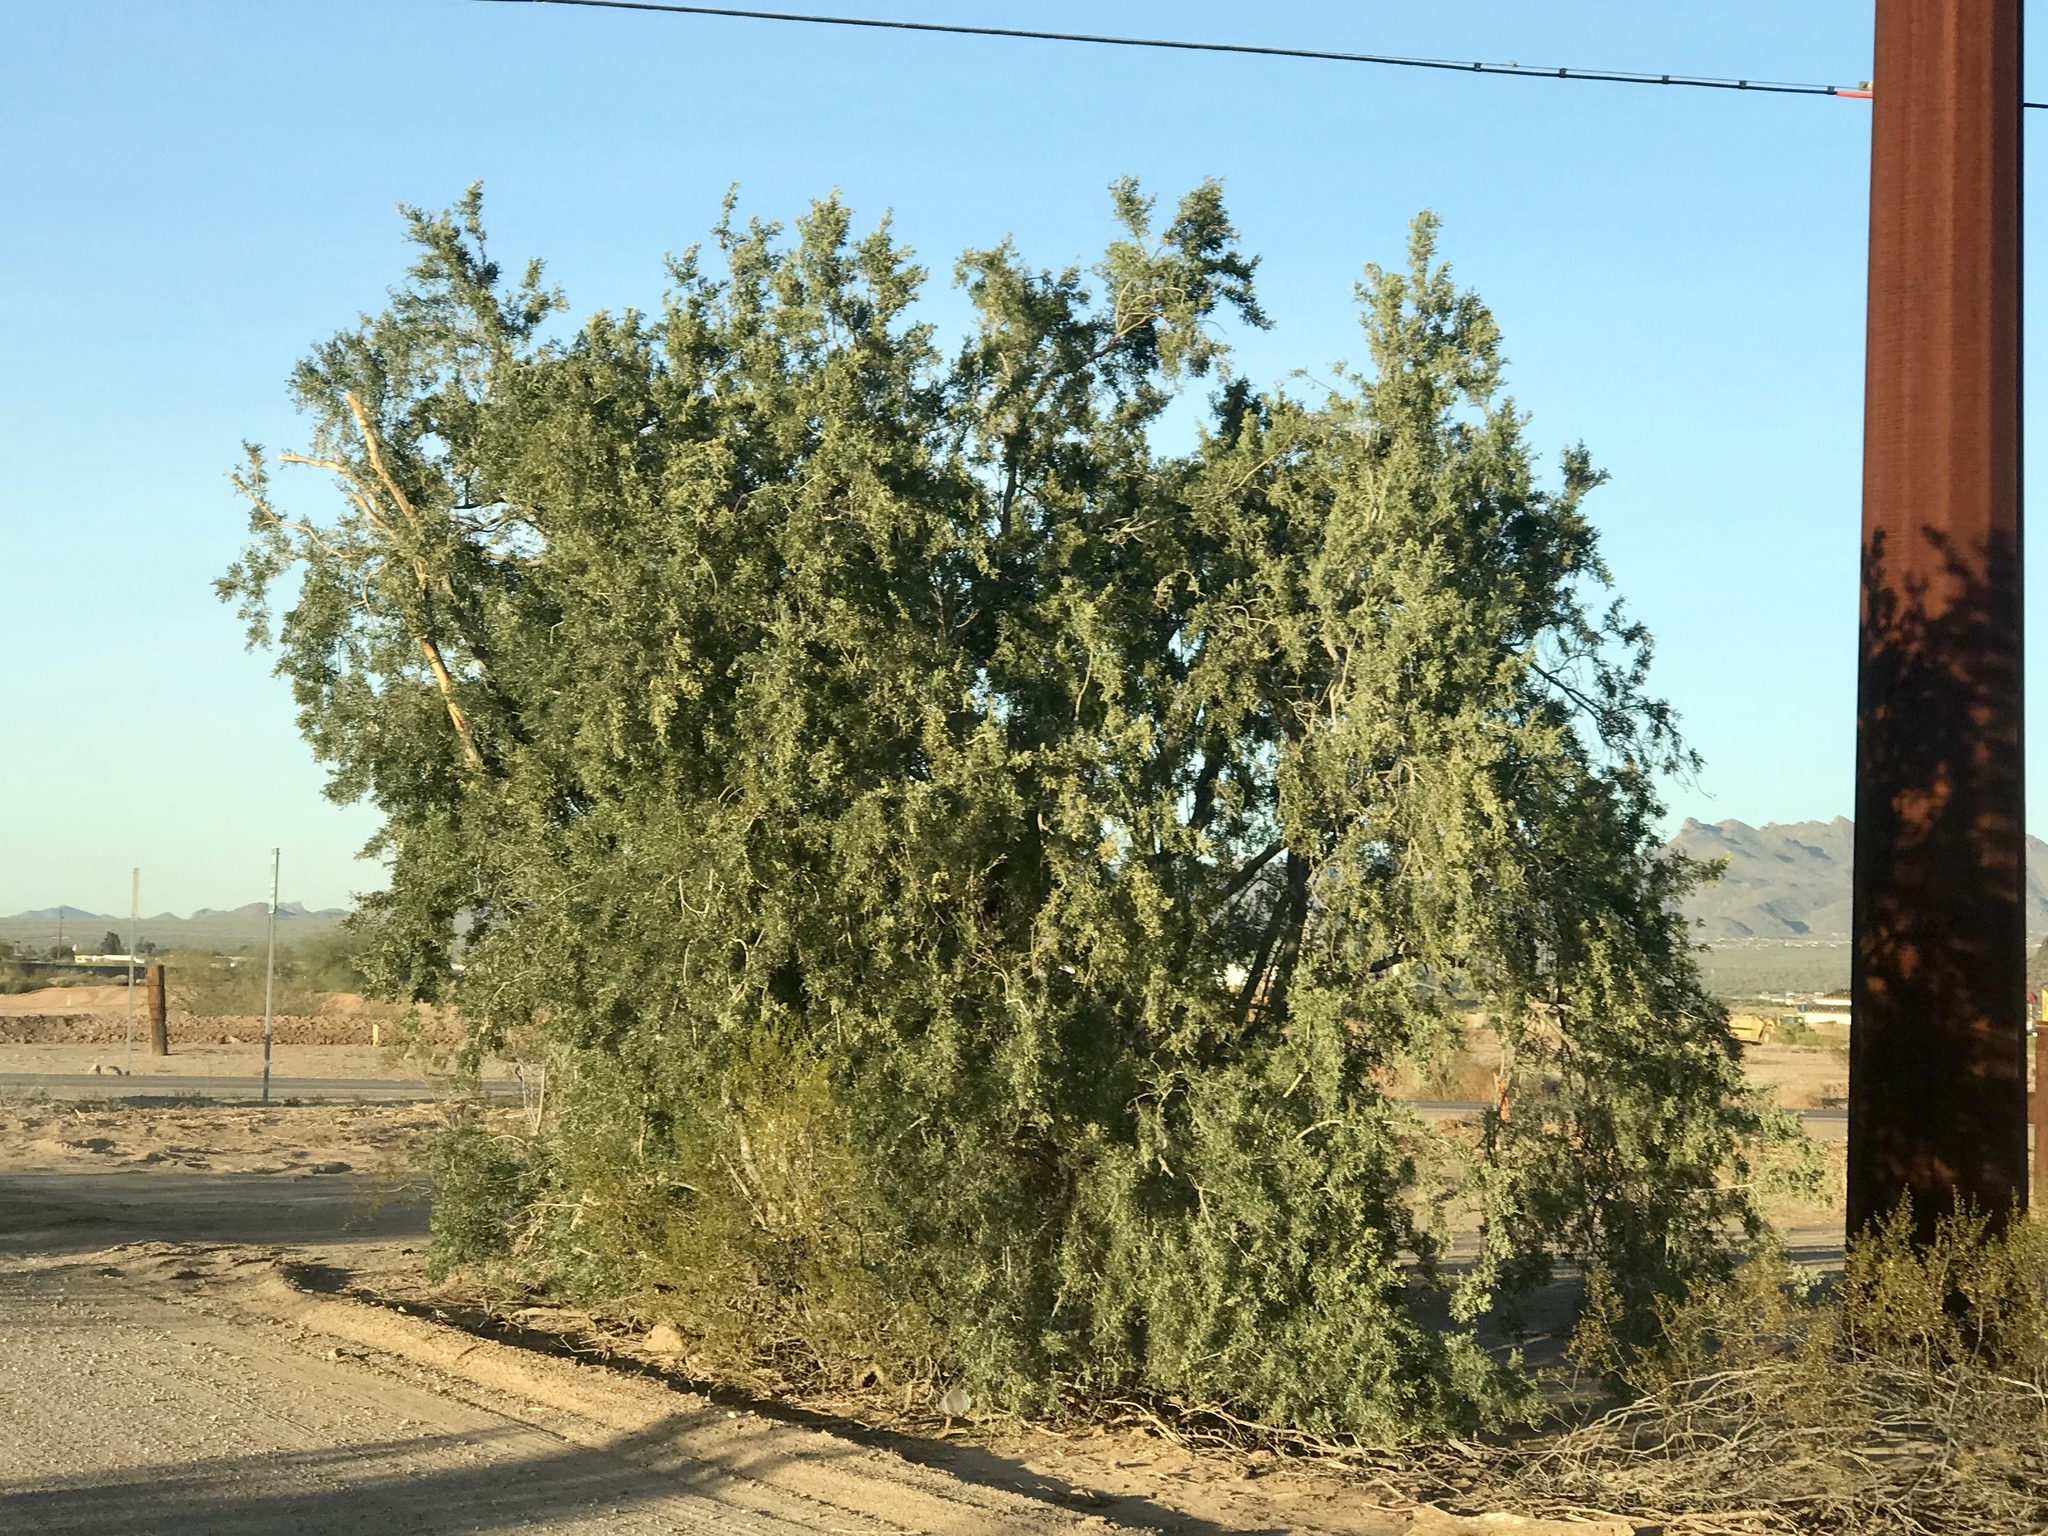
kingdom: Plantae
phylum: Tracheophyta
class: Magnoliopsida
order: Fabales
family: Fabaceae
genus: Olneya
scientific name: Olneya tesota
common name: Desert ironwood
